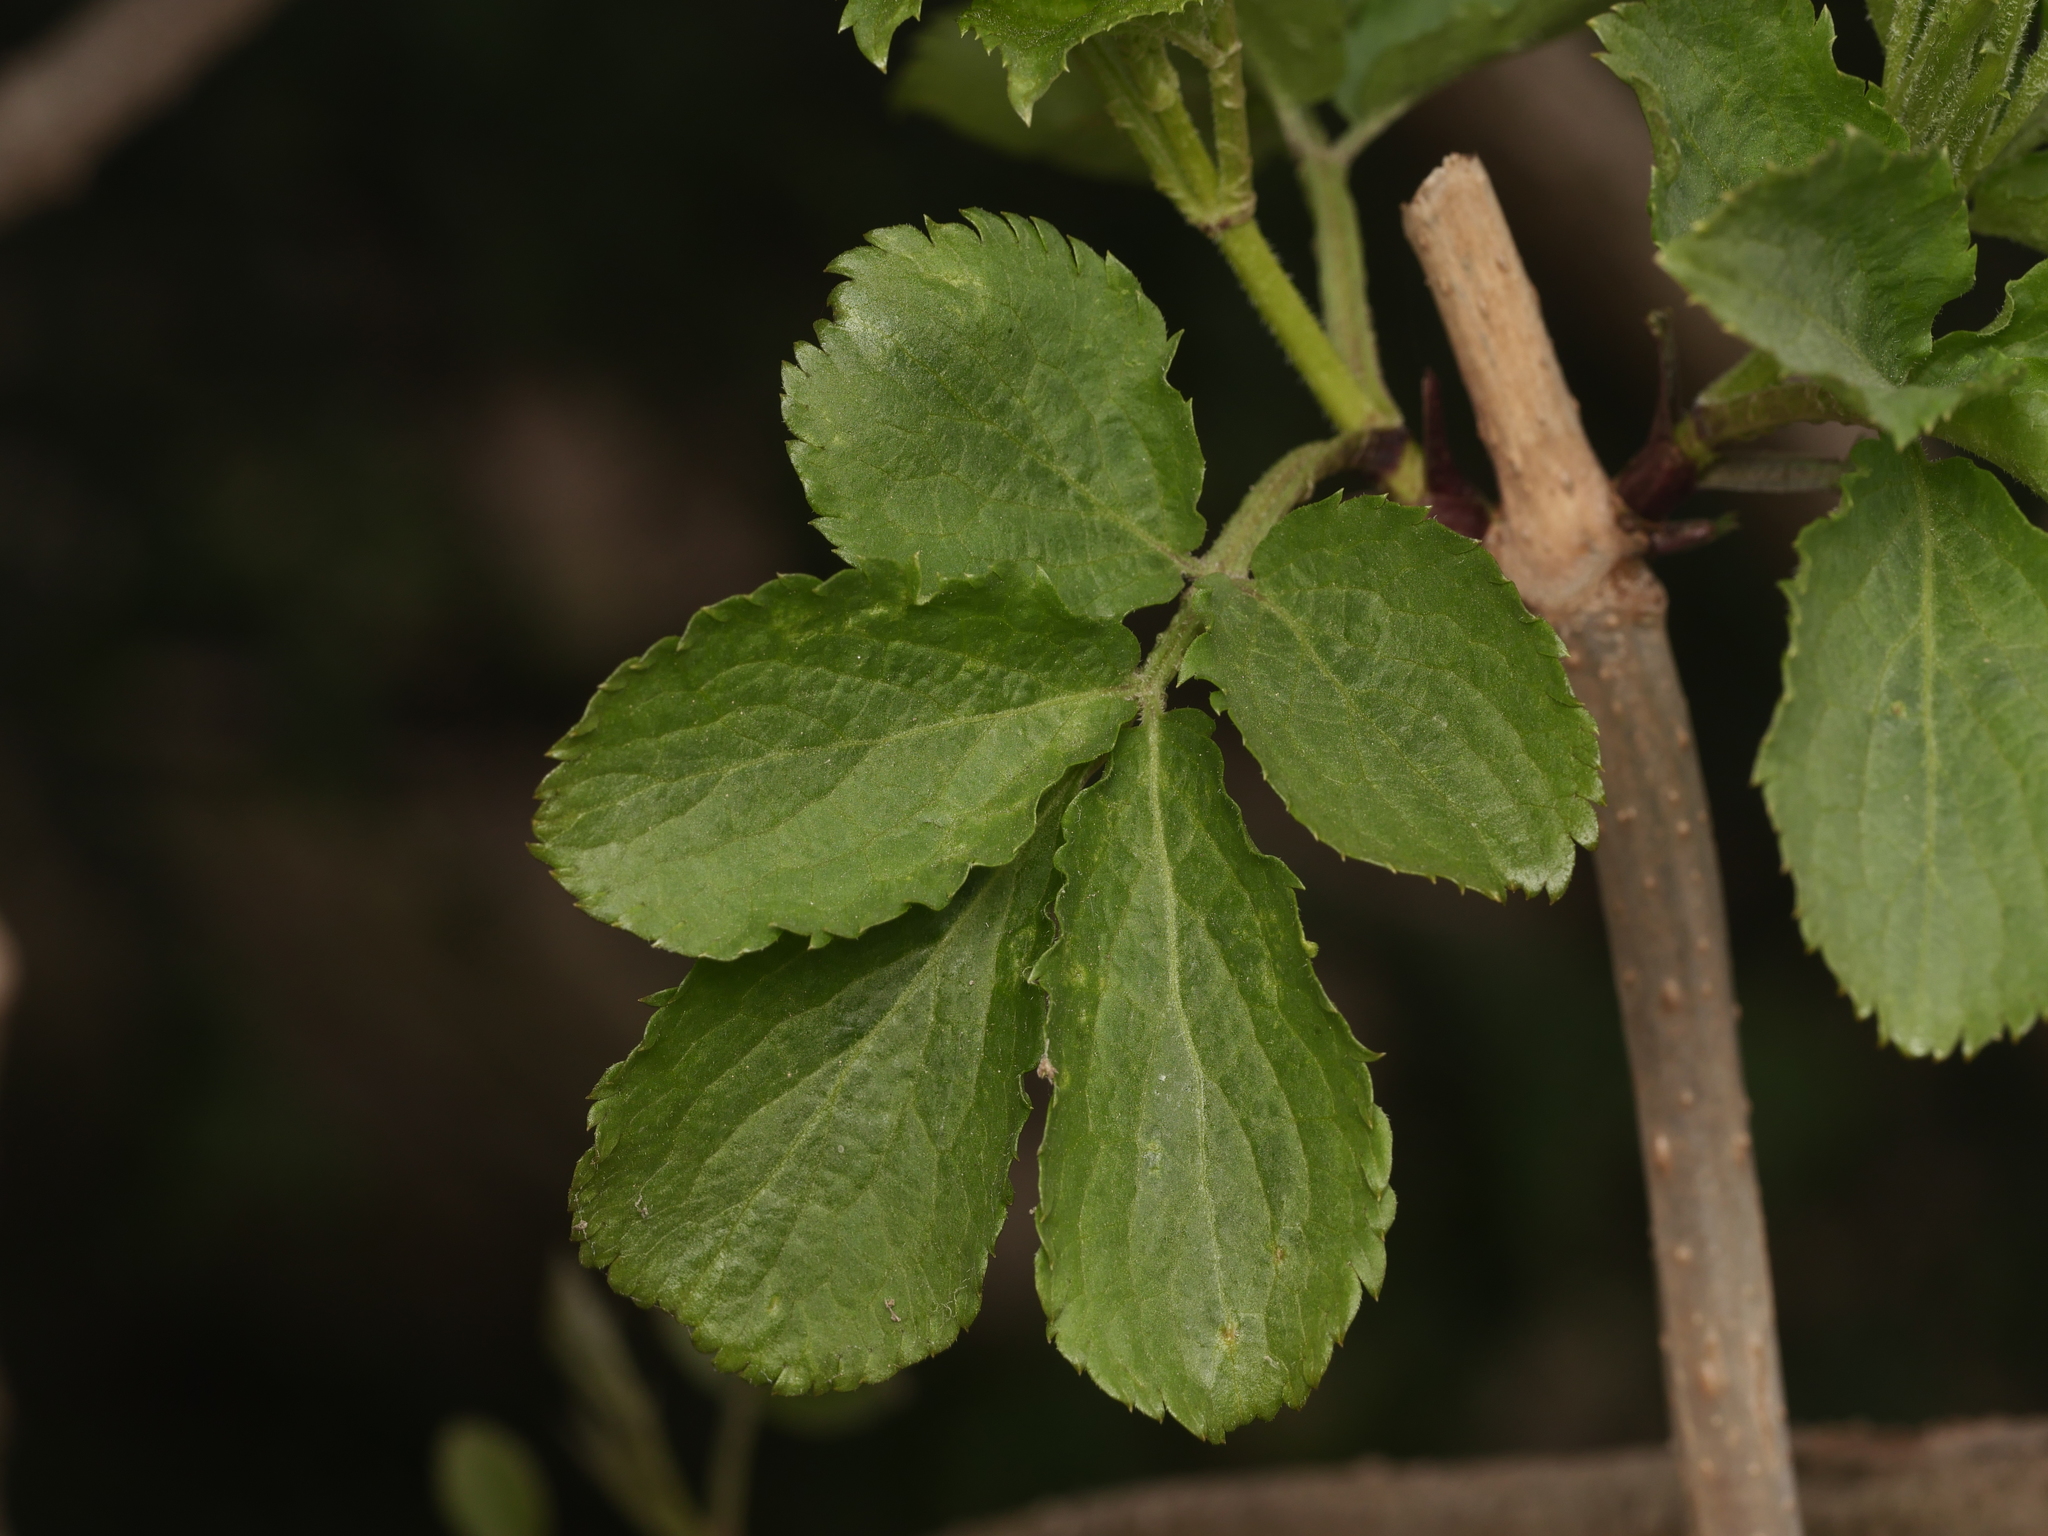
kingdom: Plantae
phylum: Tracheophyta
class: Magnoliopsida
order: Dipsacales
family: Viburnaceae
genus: Sambucus
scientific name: Sambucus nigra
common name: Elder
